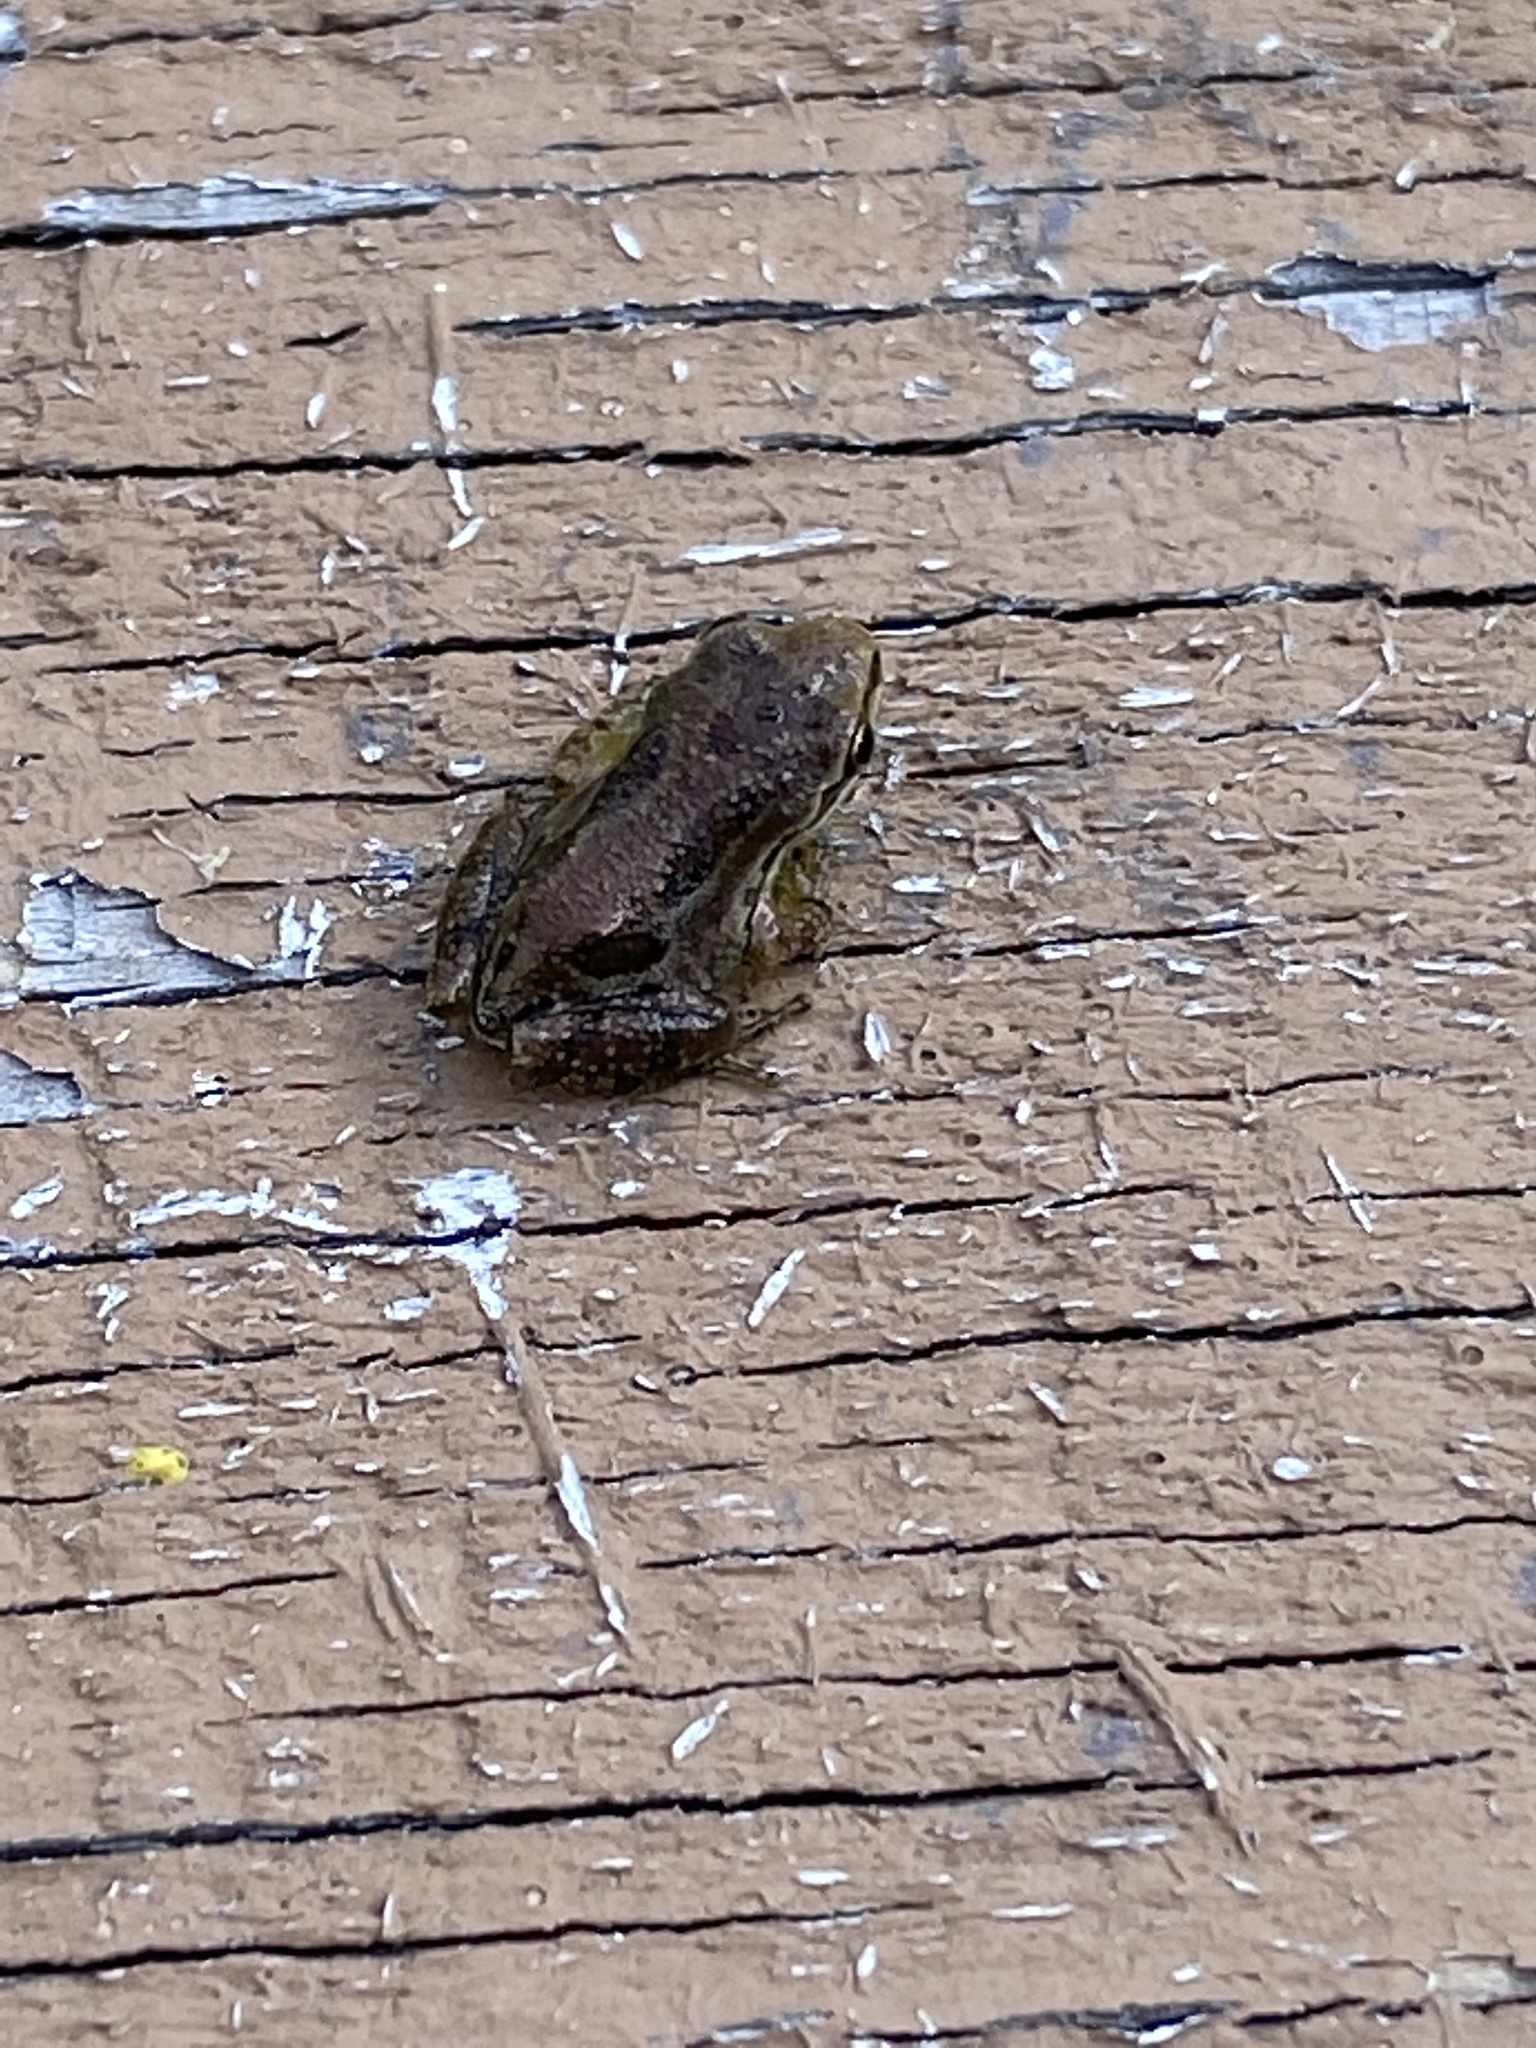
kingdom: Animalia
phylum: Chordata
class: Amphibia
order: Anura
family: Hylidae
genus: Pseudacris
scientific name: Pseudacris regilla
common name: Pacific chorus frog
